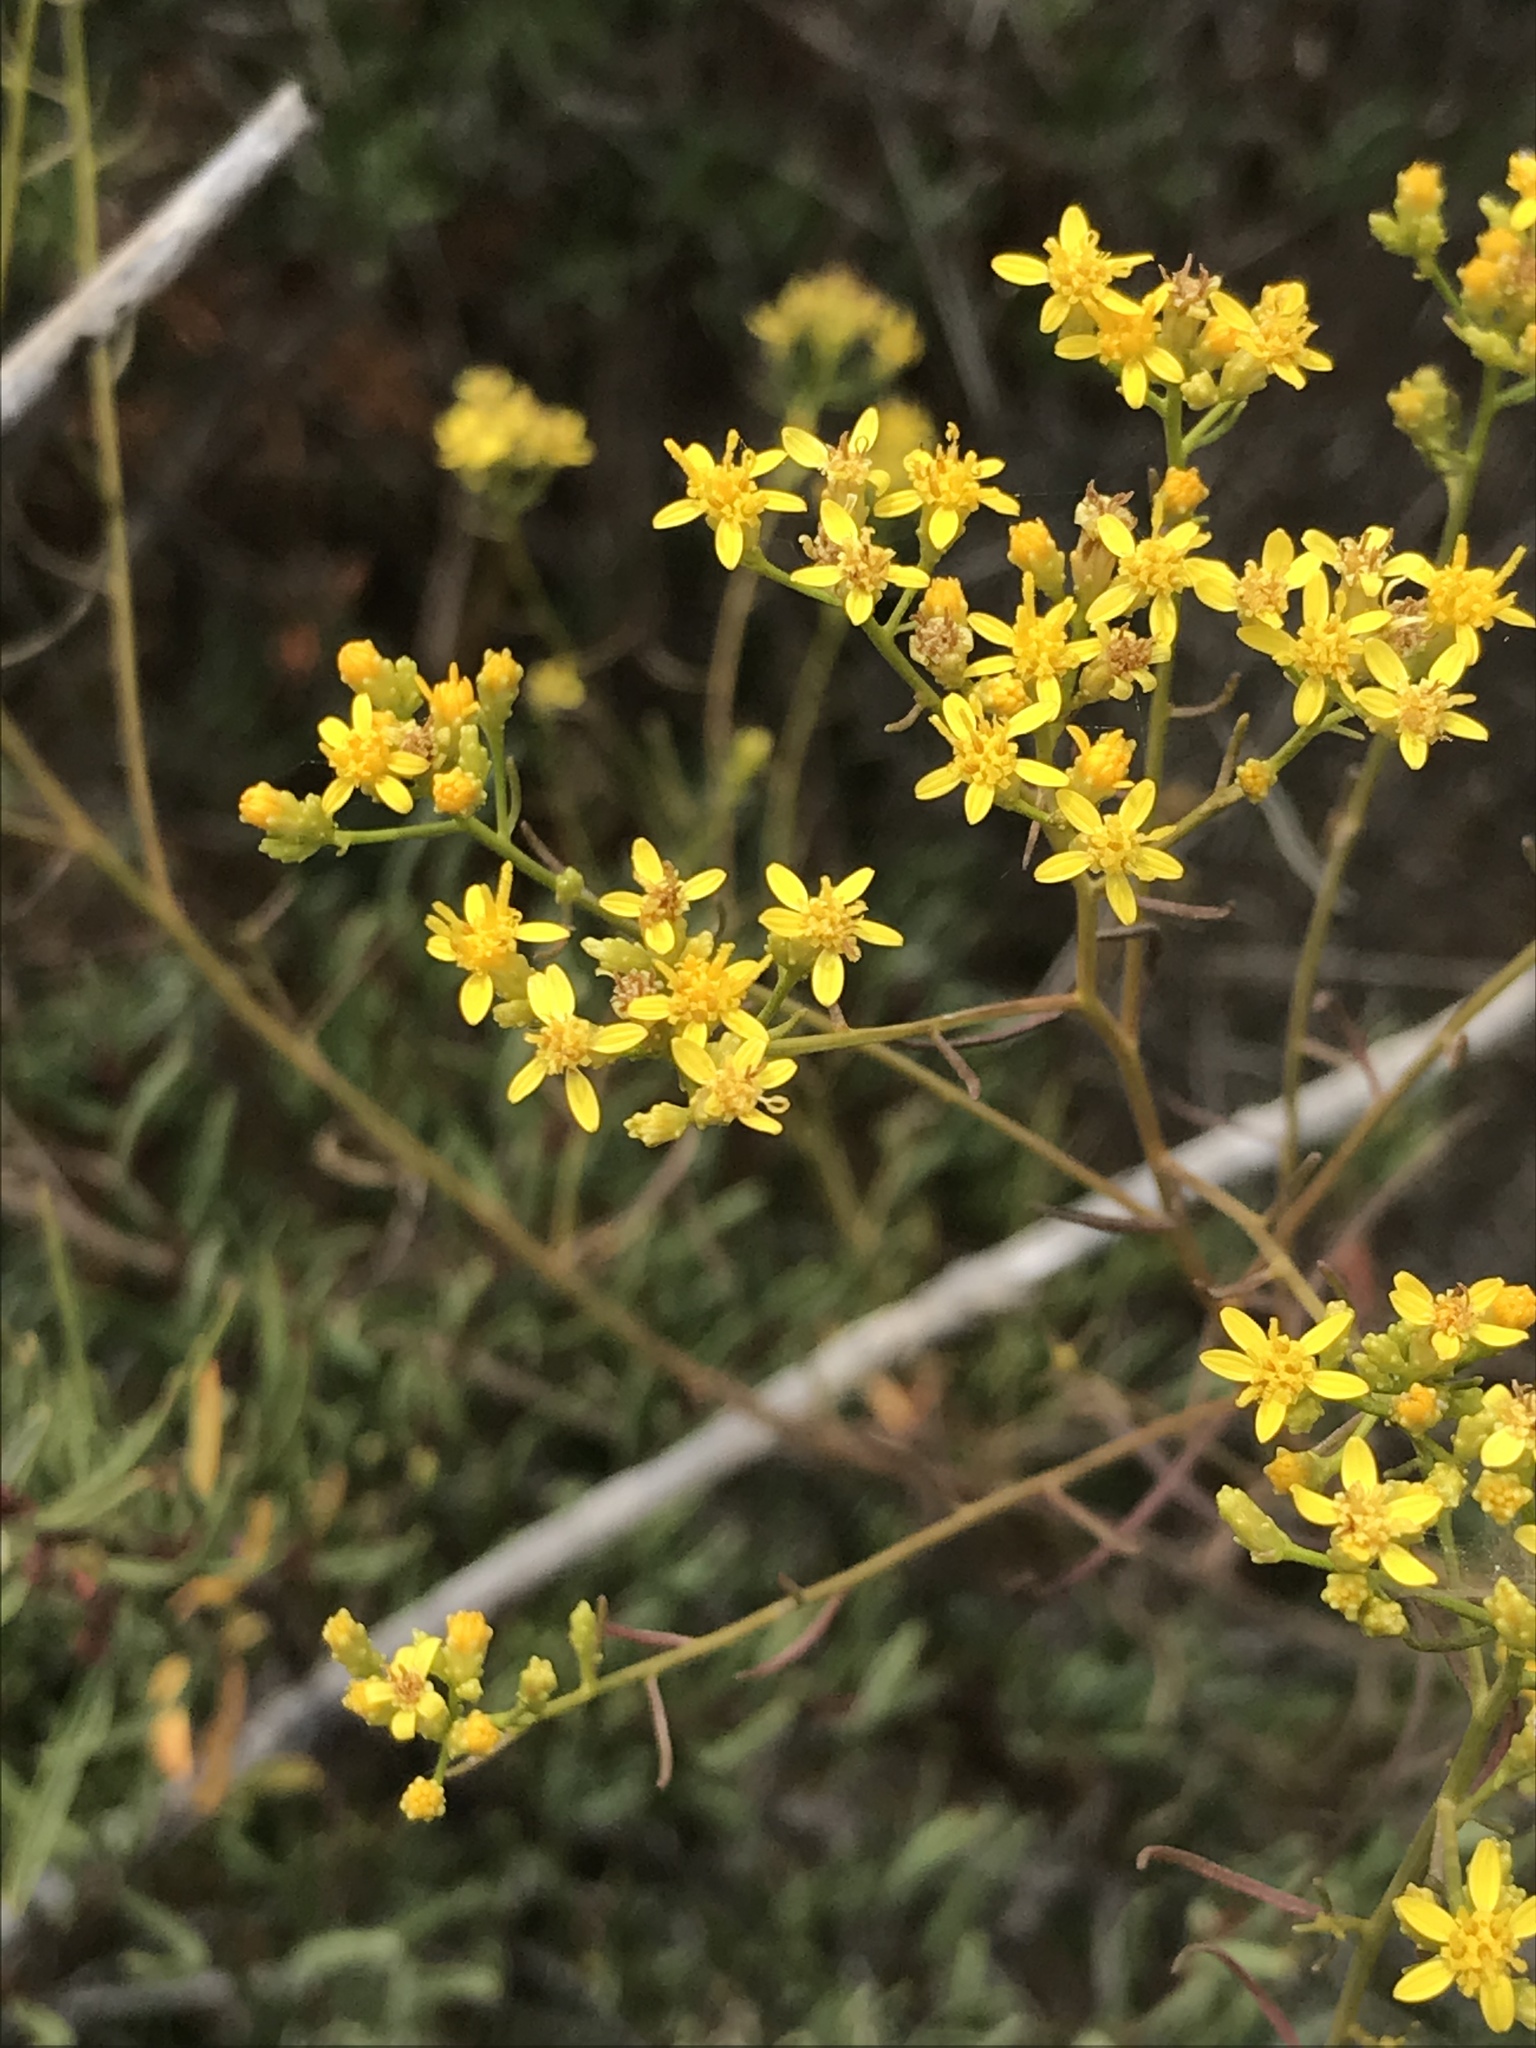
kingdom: Plantae
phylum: Tracheophyta
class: Magnoliopsida
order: Asterales
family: Asteraceae
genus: Gutierrezia
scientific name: Gutierrezia sarothrae
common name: Broom snakeweed
